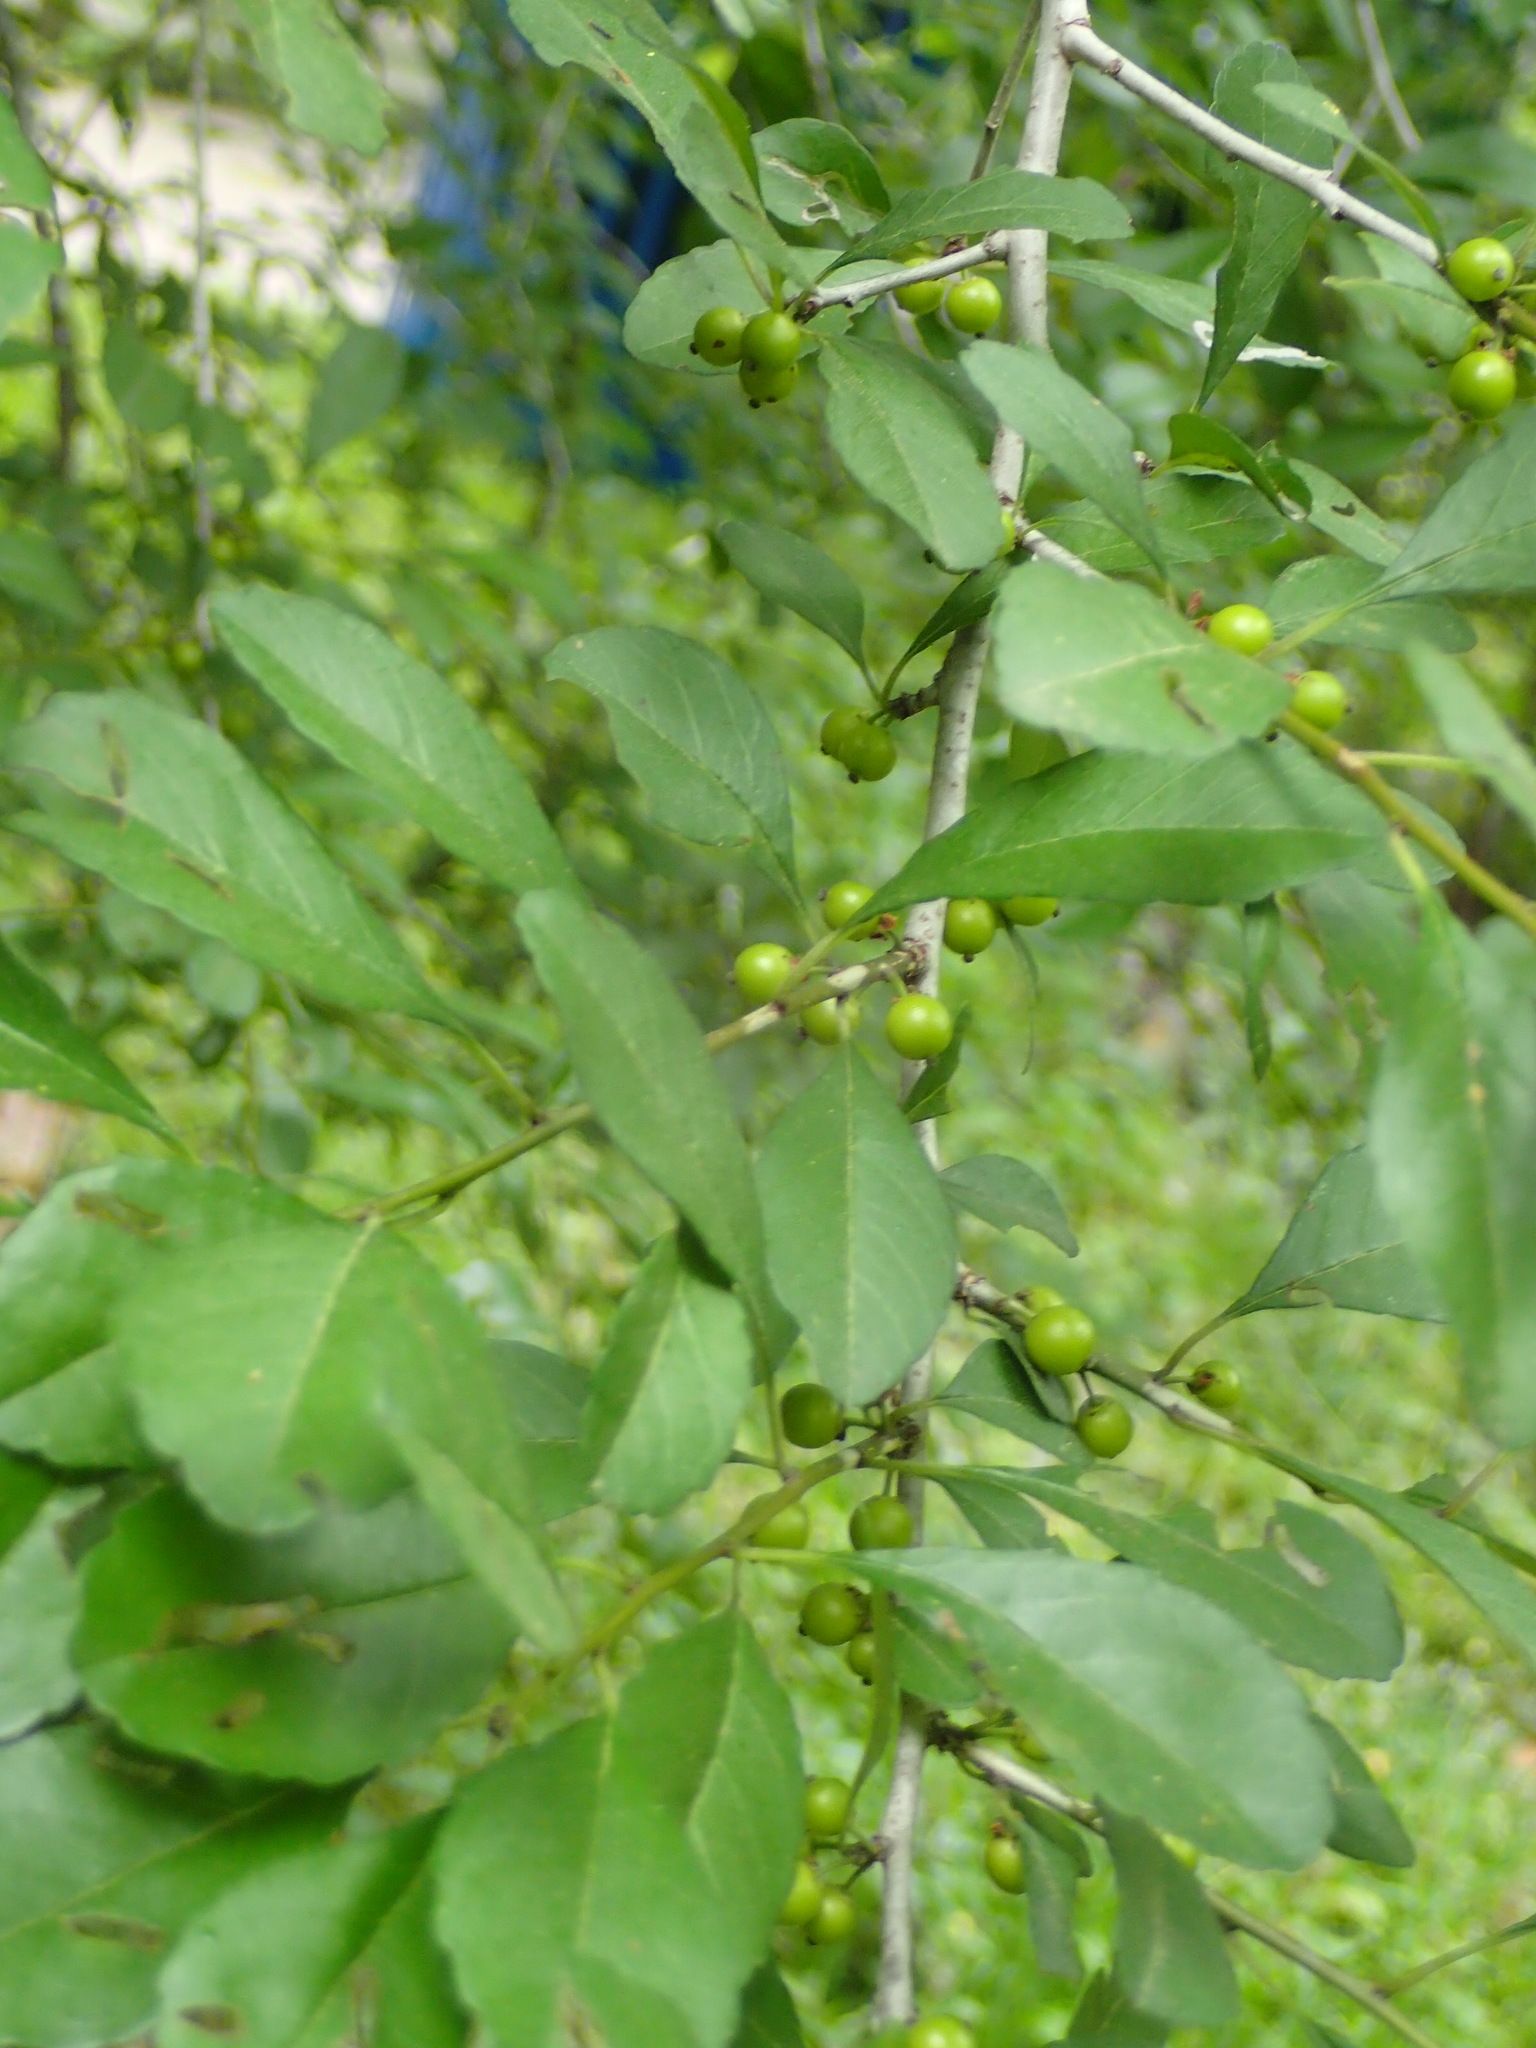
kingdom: Plantae
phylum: Tracheophyta
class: Magnoliopsida
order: Aquifoliales
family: Aquifoliaceae
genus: Ilex
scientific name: Ilex vomitoria
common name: Yaupon holly
